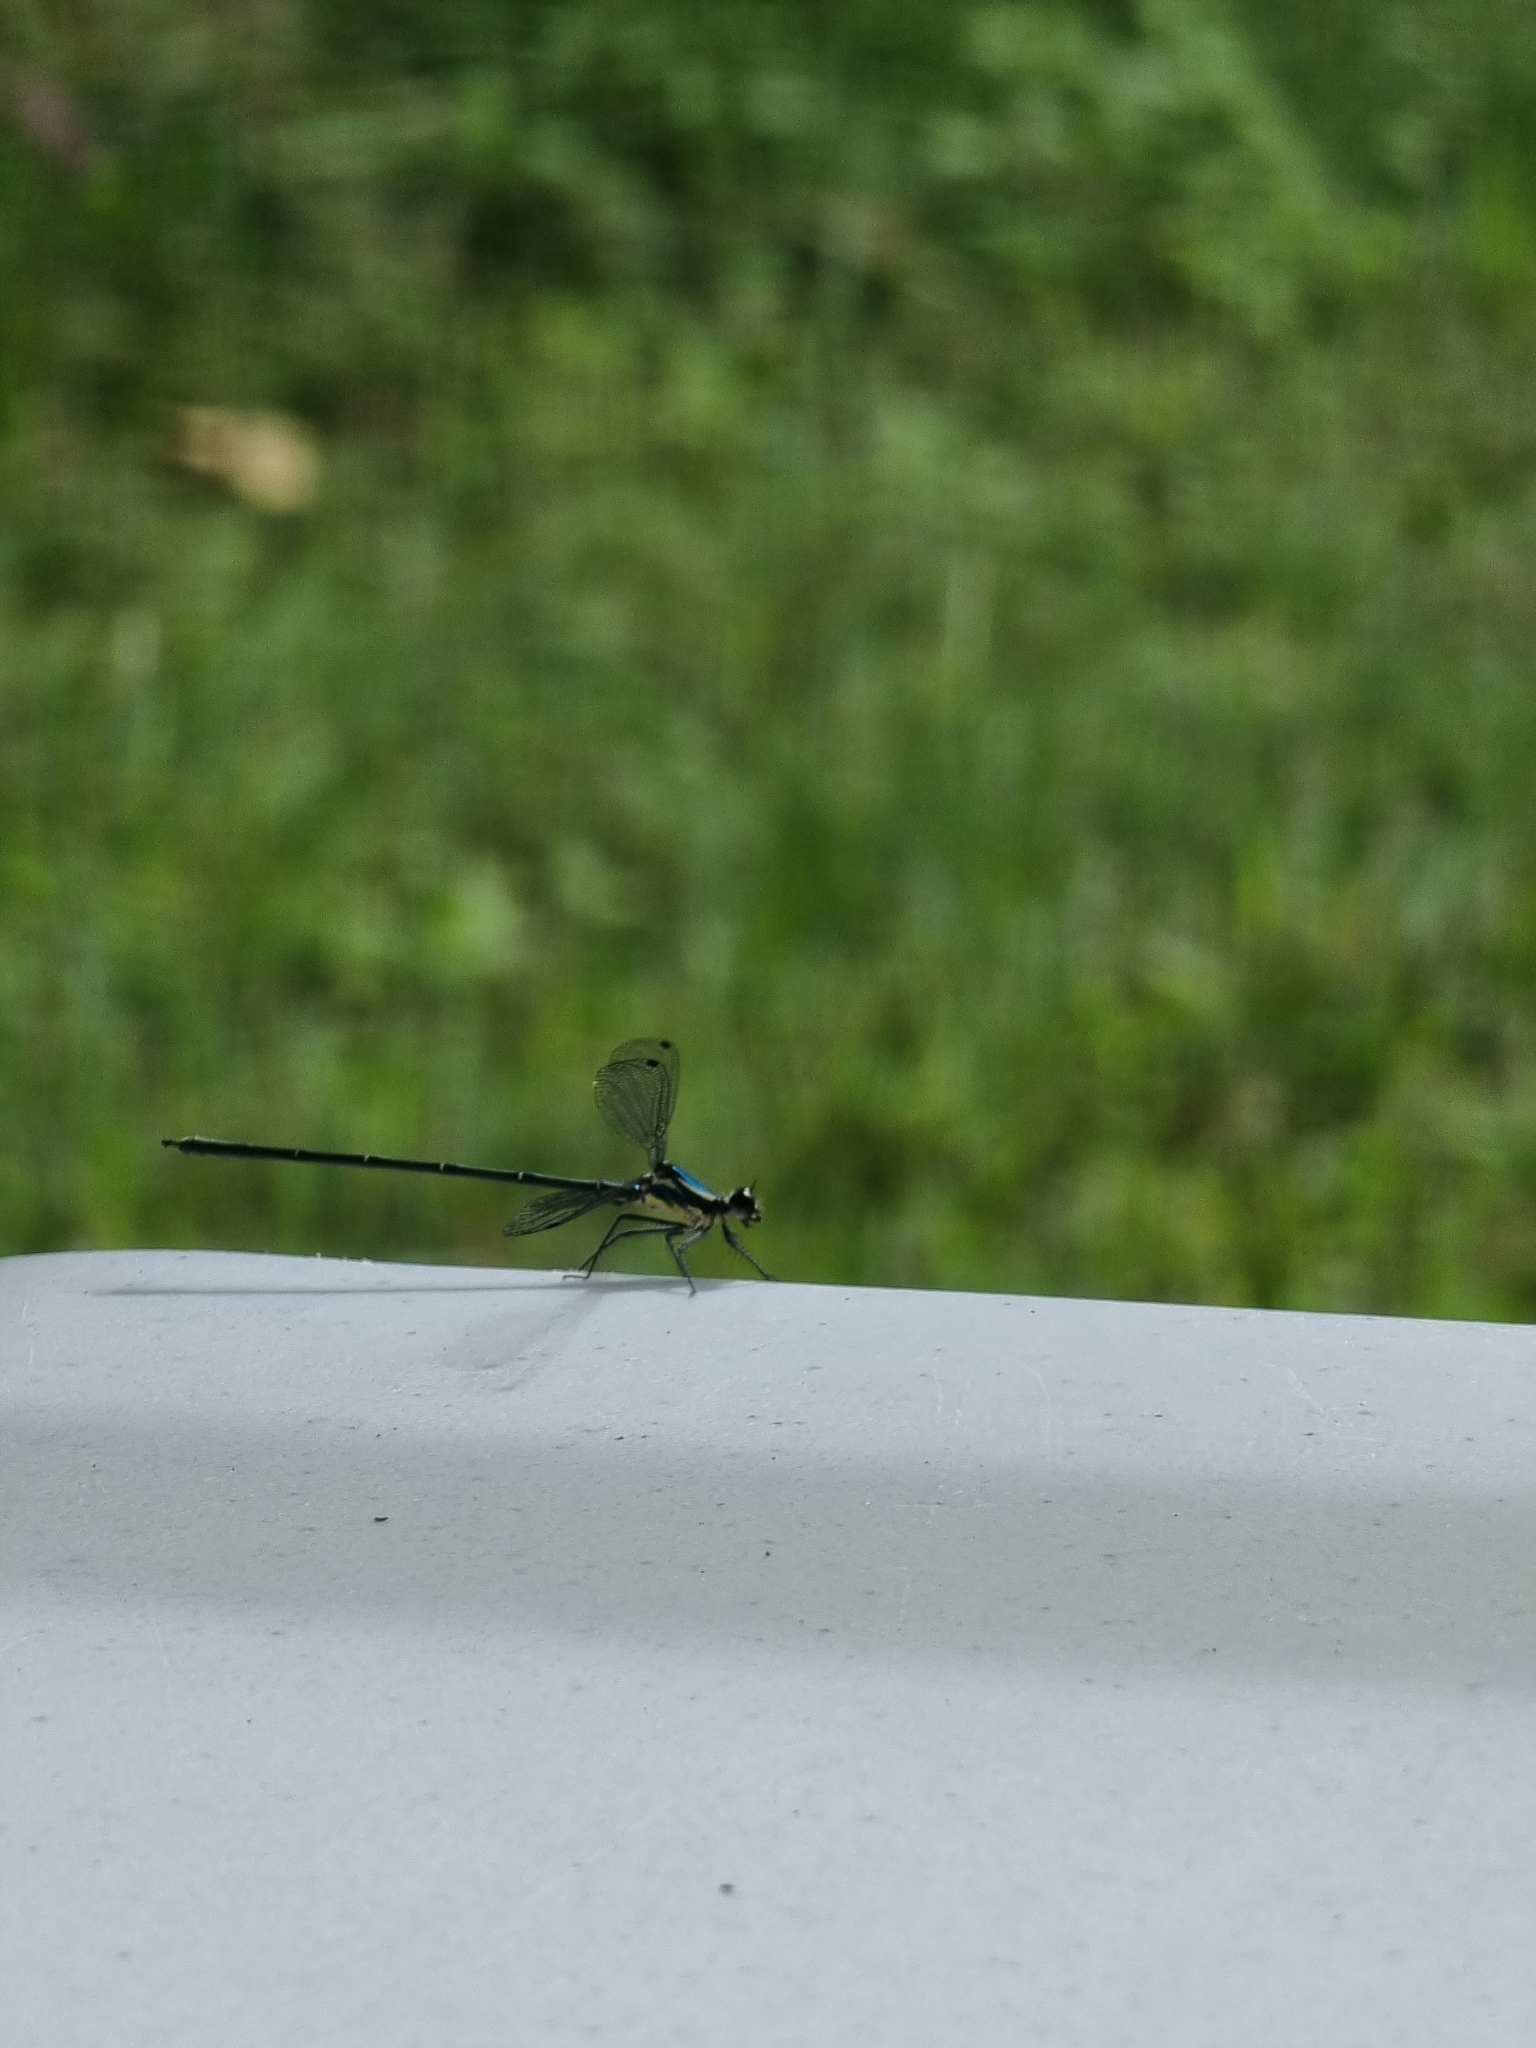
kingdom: Animalia
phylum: Arthropoda
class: Insecta
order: Odonata
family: Argiolestidae
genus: Austroargiolestes
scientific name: Austroargiolestes icteromelas
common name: Common flatwing
